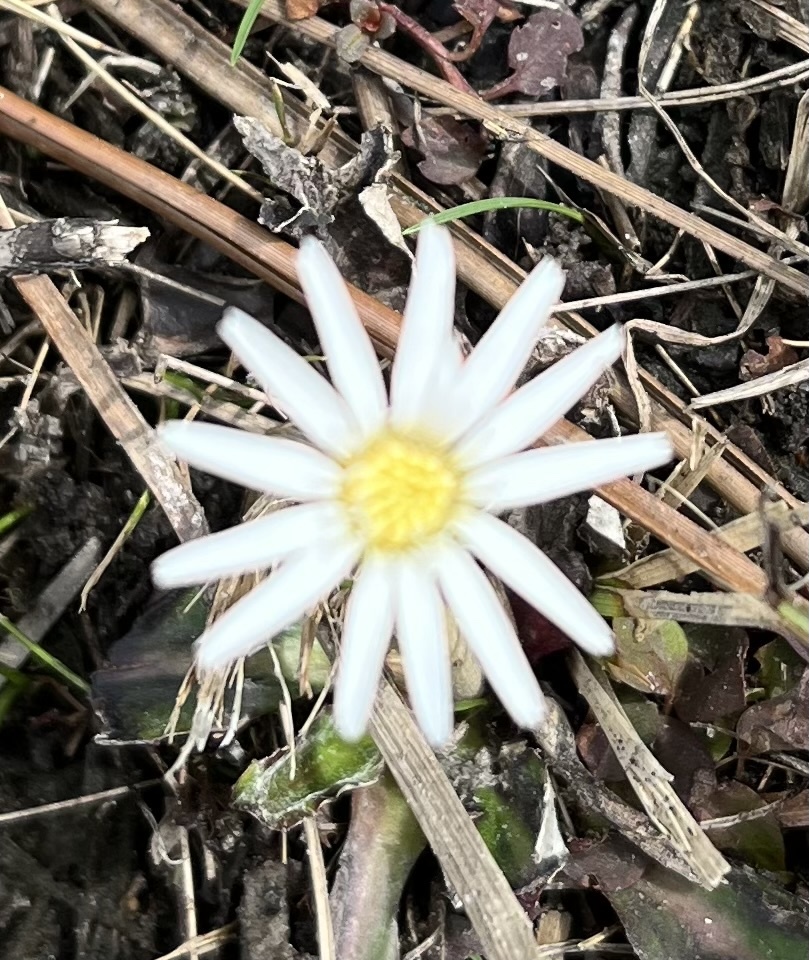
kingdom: Plantae
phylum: Tracheophyta
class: Magnoliopsida
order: Asterales
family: Asteraceae
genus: Chaptalia
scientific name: Chaptalia tomentosa
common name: Woolly sunbonnet
